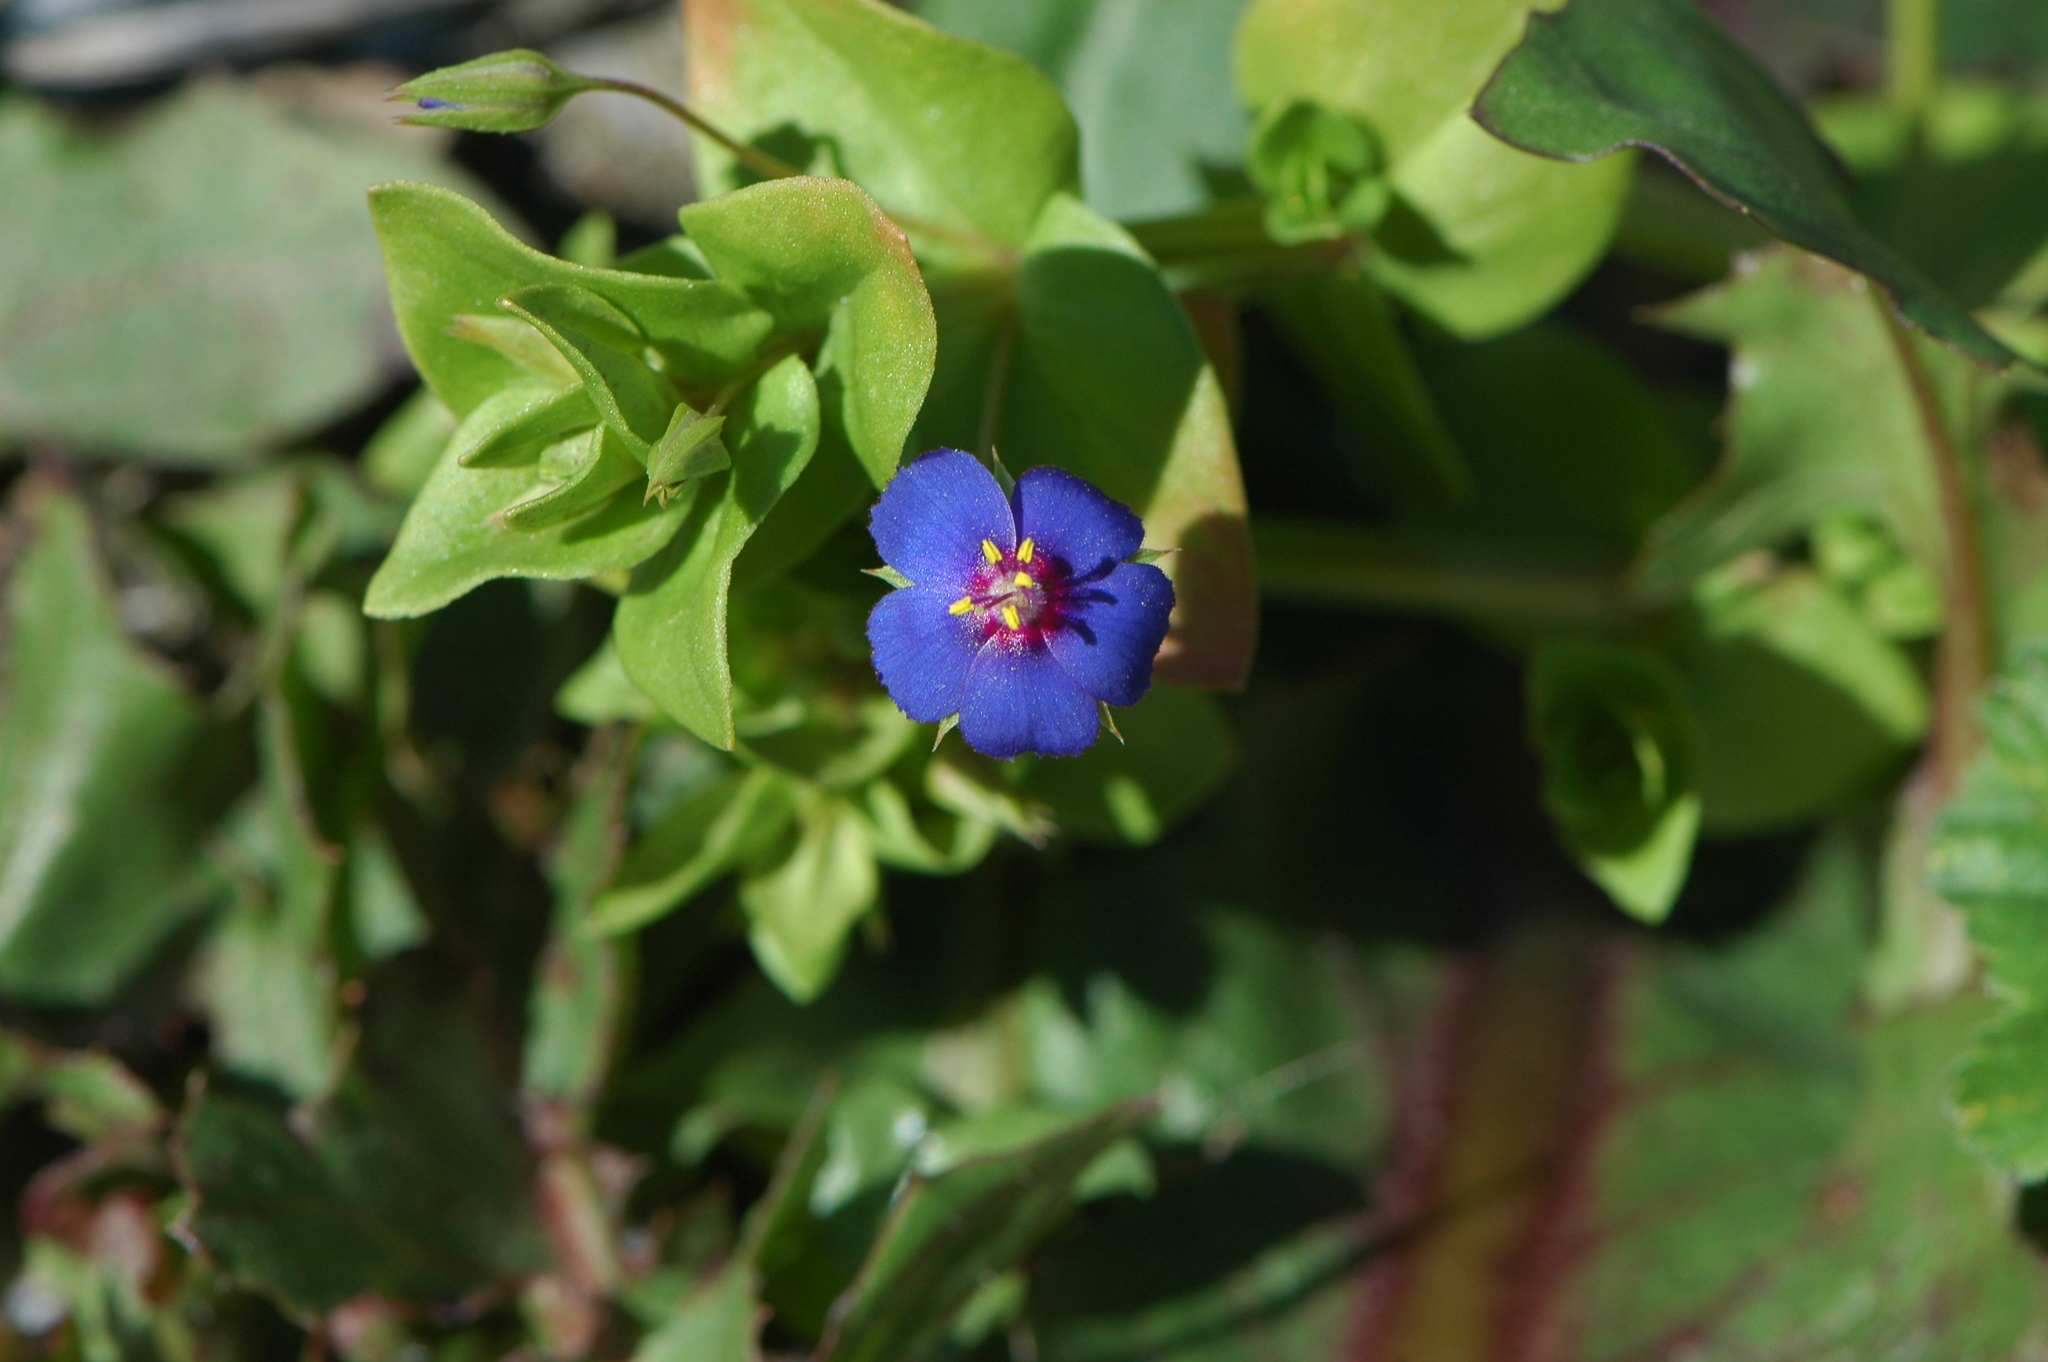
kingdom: Plantae
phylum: Tracheophyta
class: Magnoliopsida
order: Ericales
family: Primulaceae
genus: Lysimachia
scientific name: Lysimachia arvensis
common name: Scarlet pimpernel
